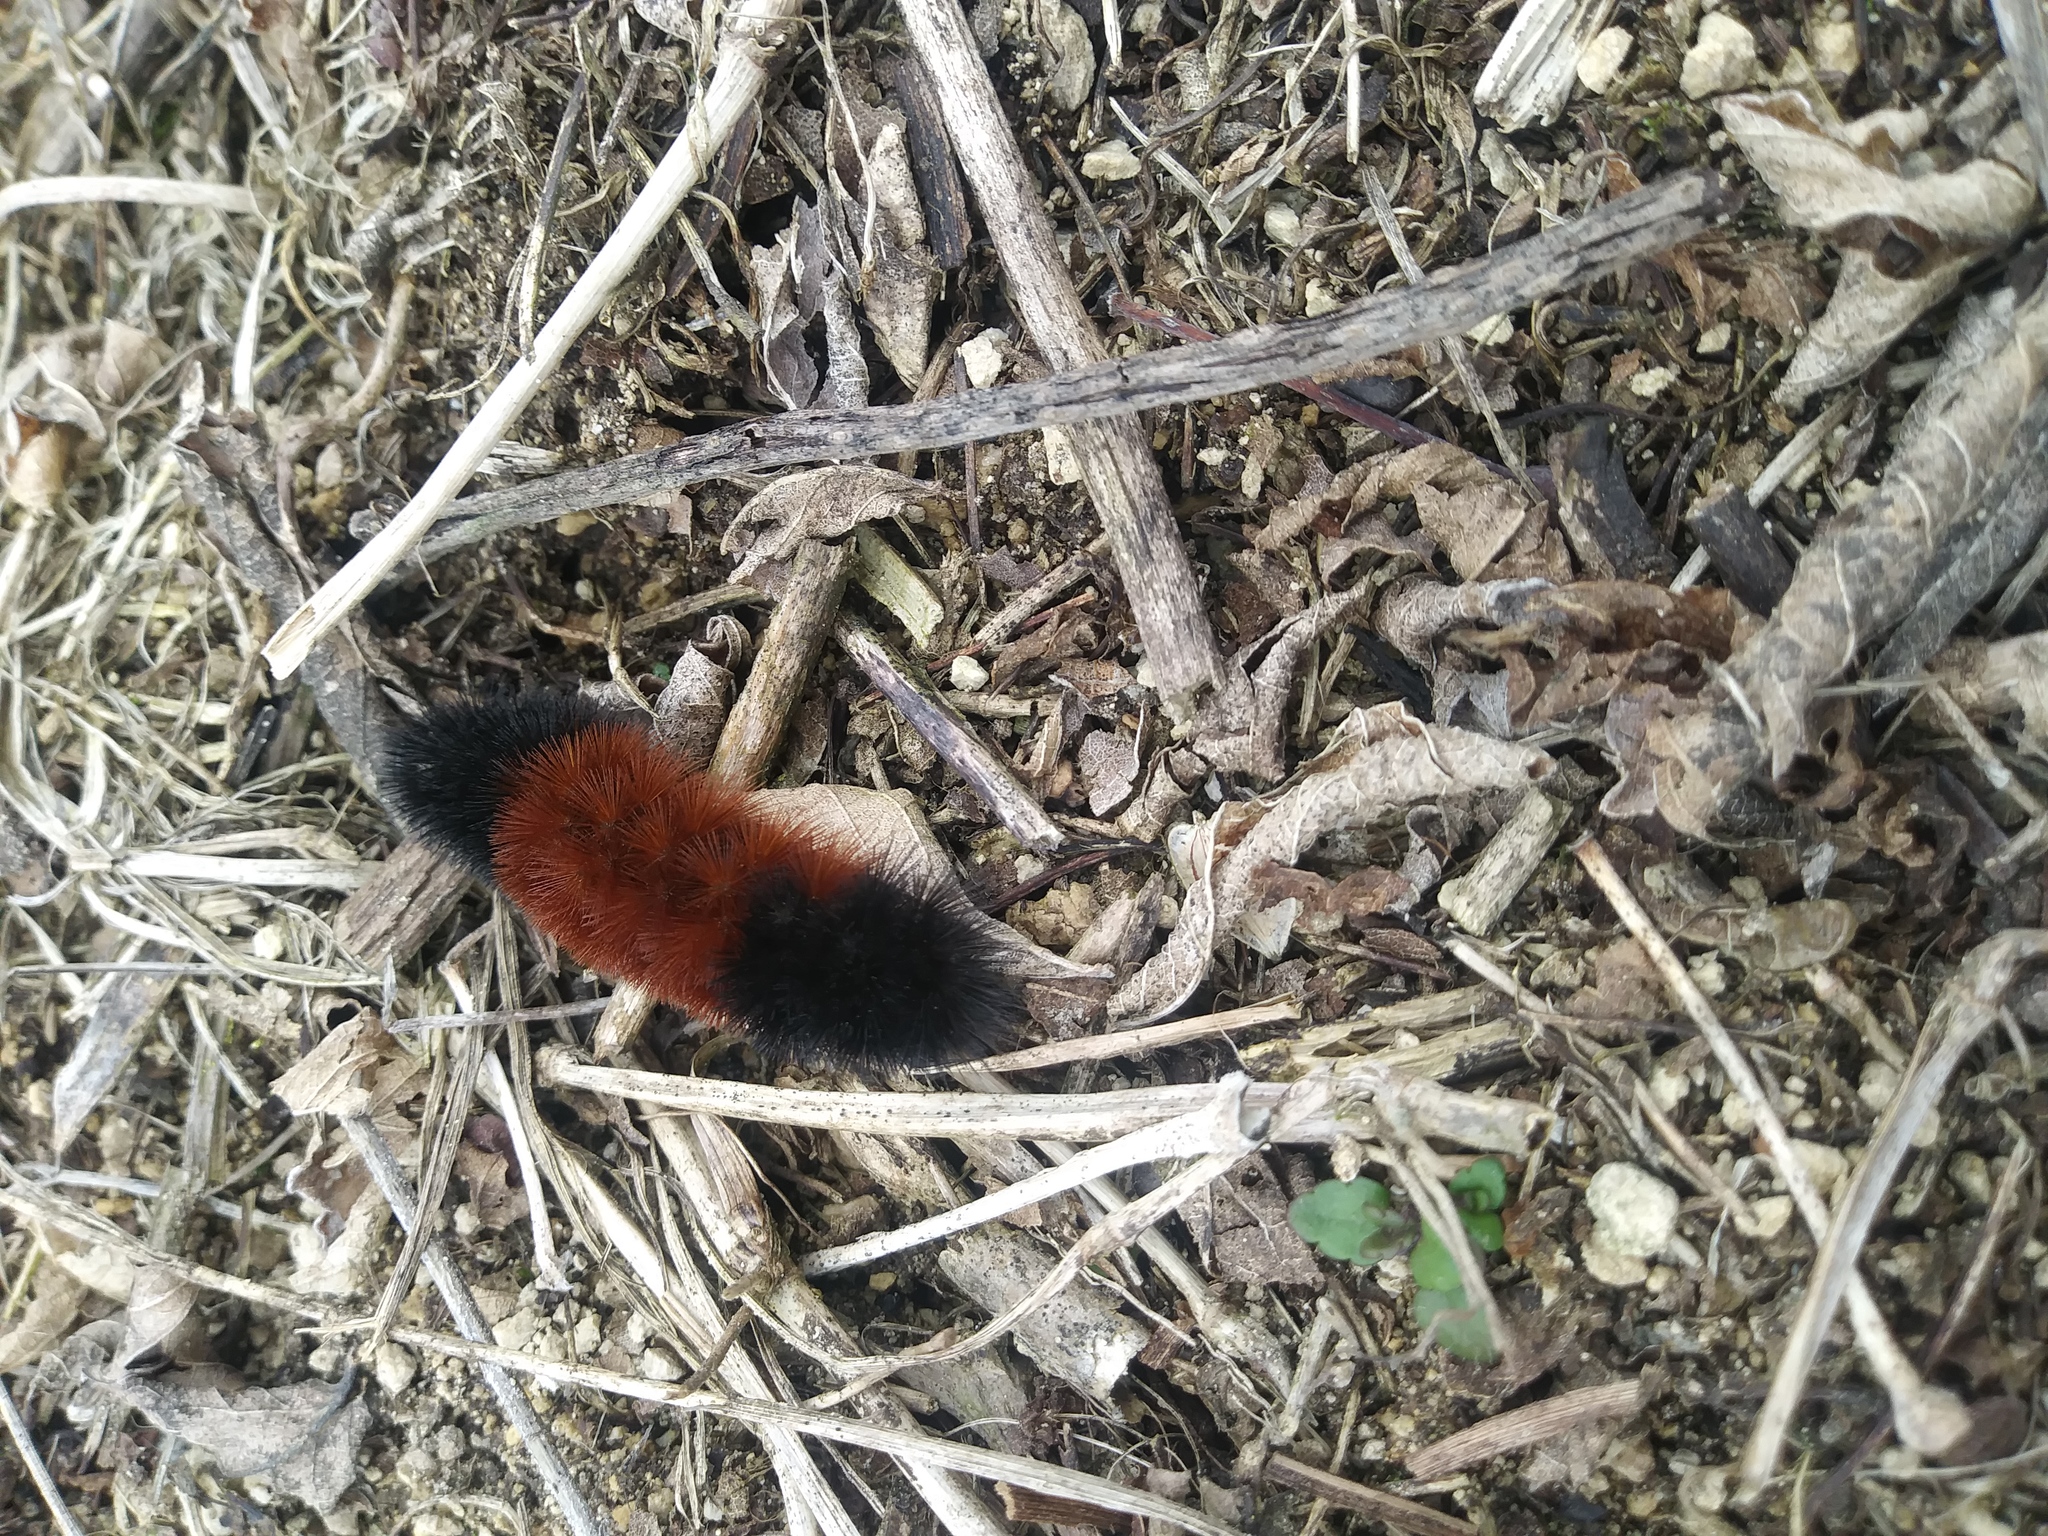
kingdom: Animalia
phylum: Arthropoda
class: Insecta
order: Lepidoptera
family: Erebidae
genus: Pyrrharctia
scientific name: Pyrrharctia isabella
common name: Isabella tiger moth
